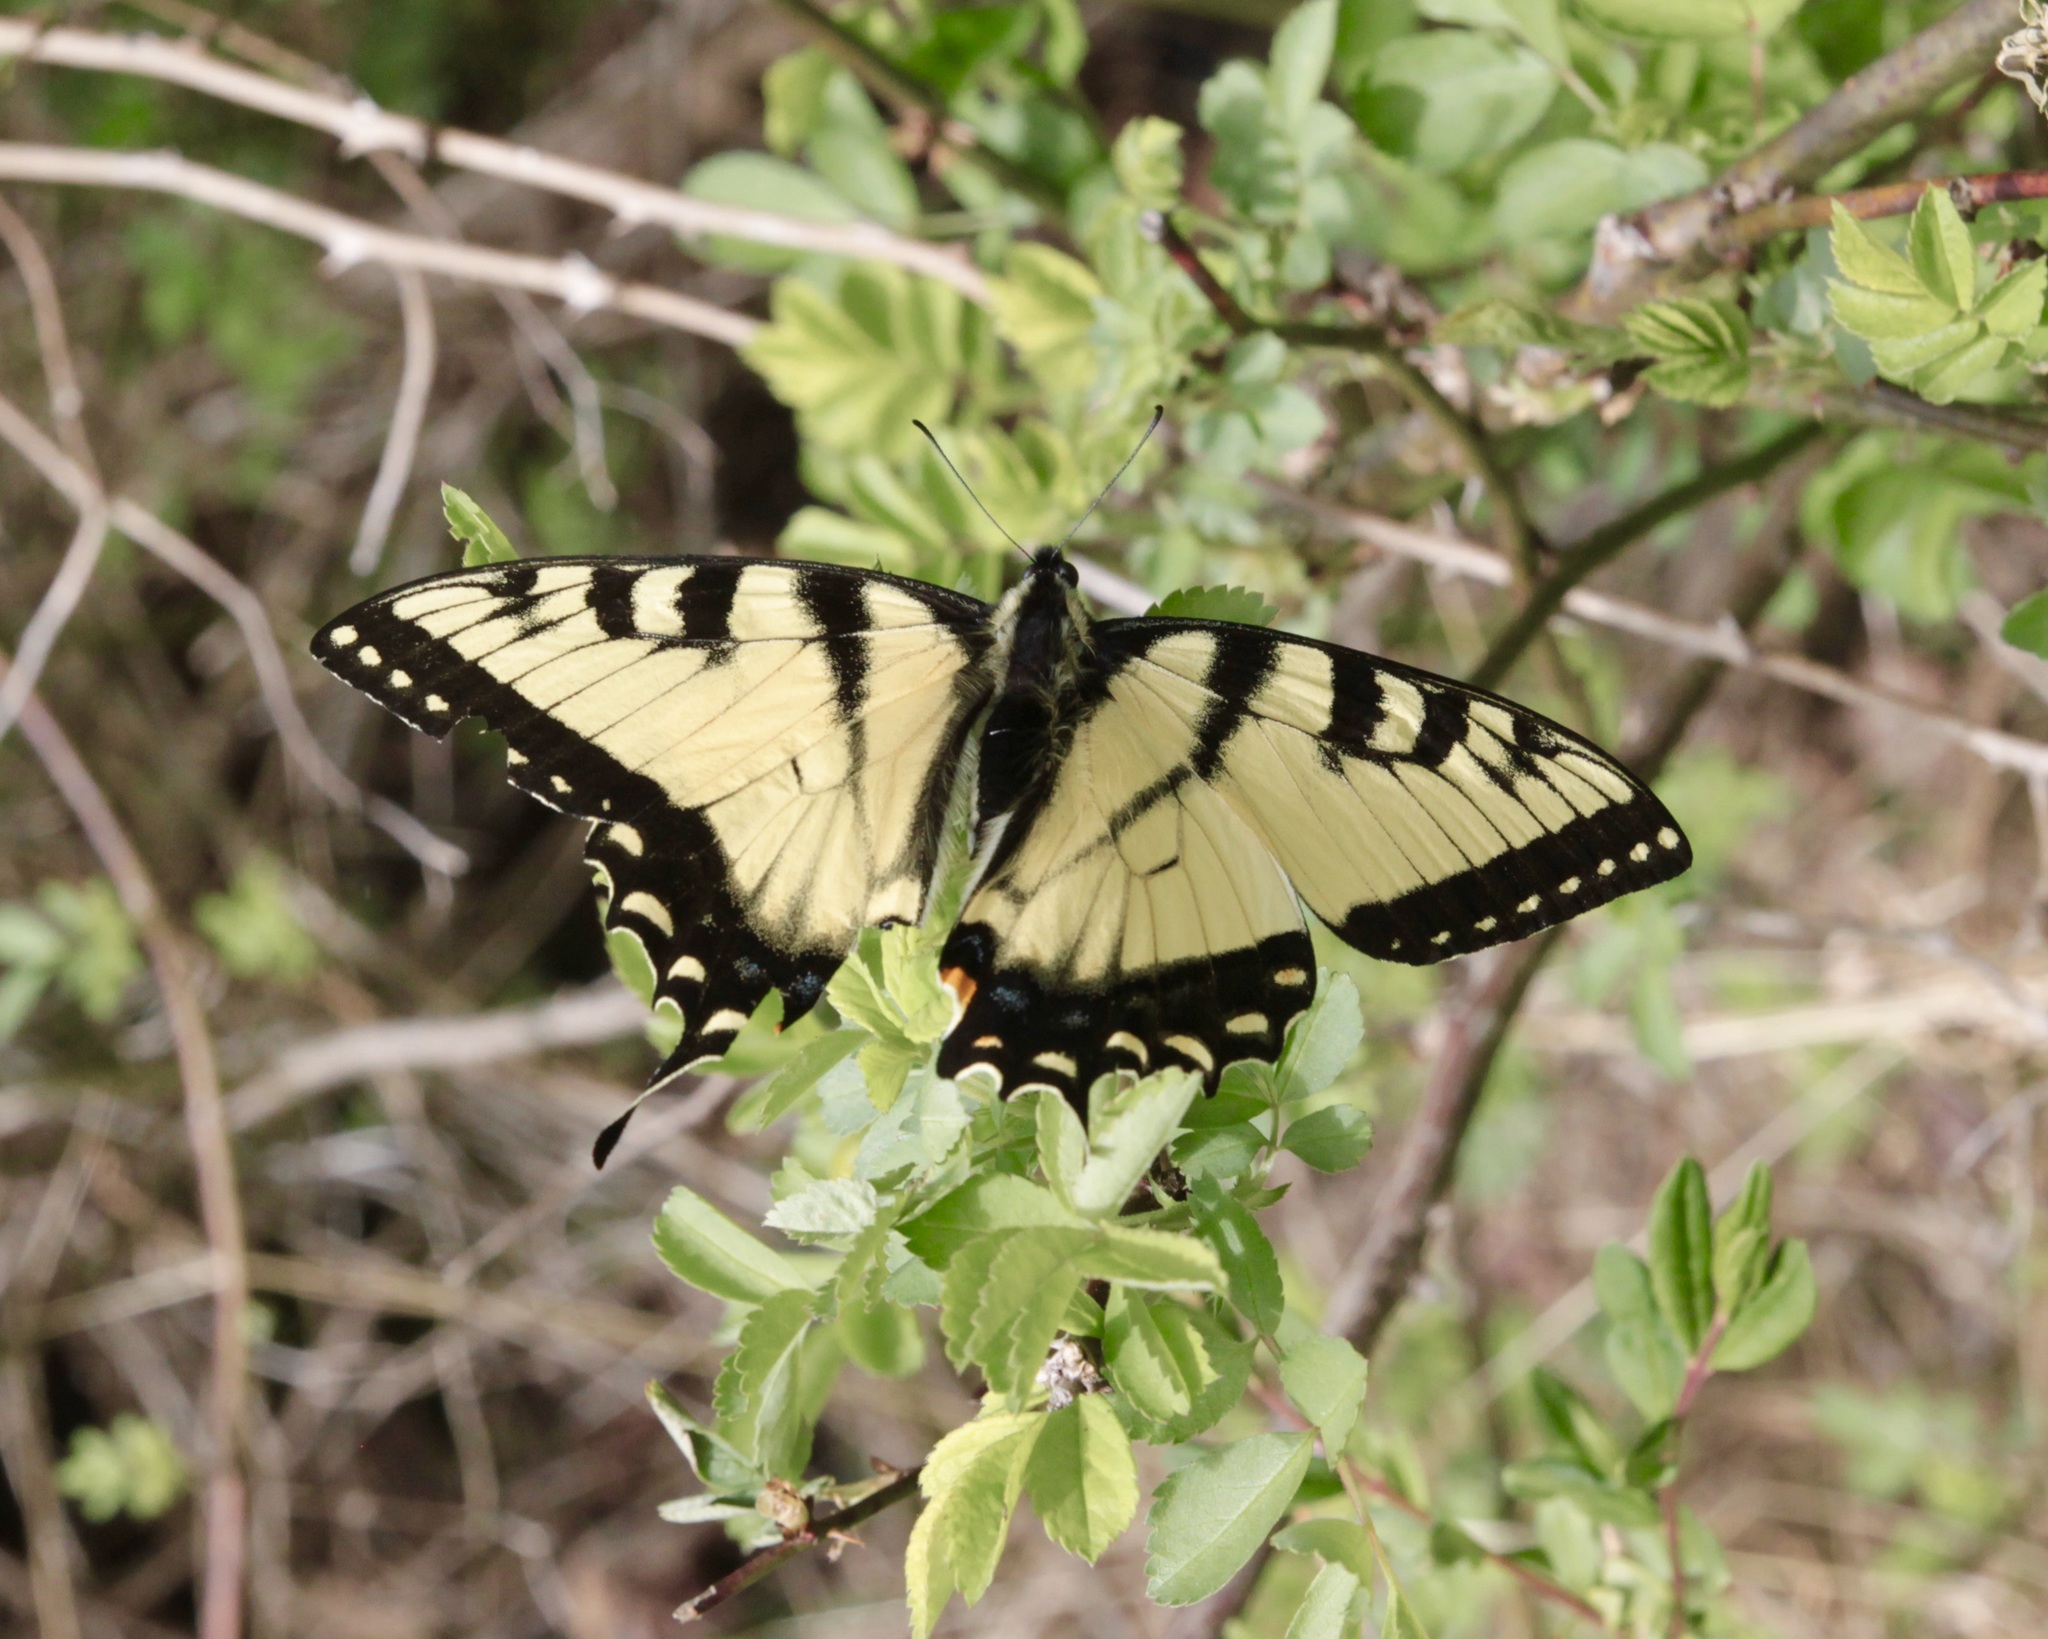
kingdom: Animalia
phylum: Arthropoda
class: Insecta
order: Lepidoptera
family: Papilionidae
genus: Papilio
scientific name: Papilio glaucus
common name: Tiger swallowtail
